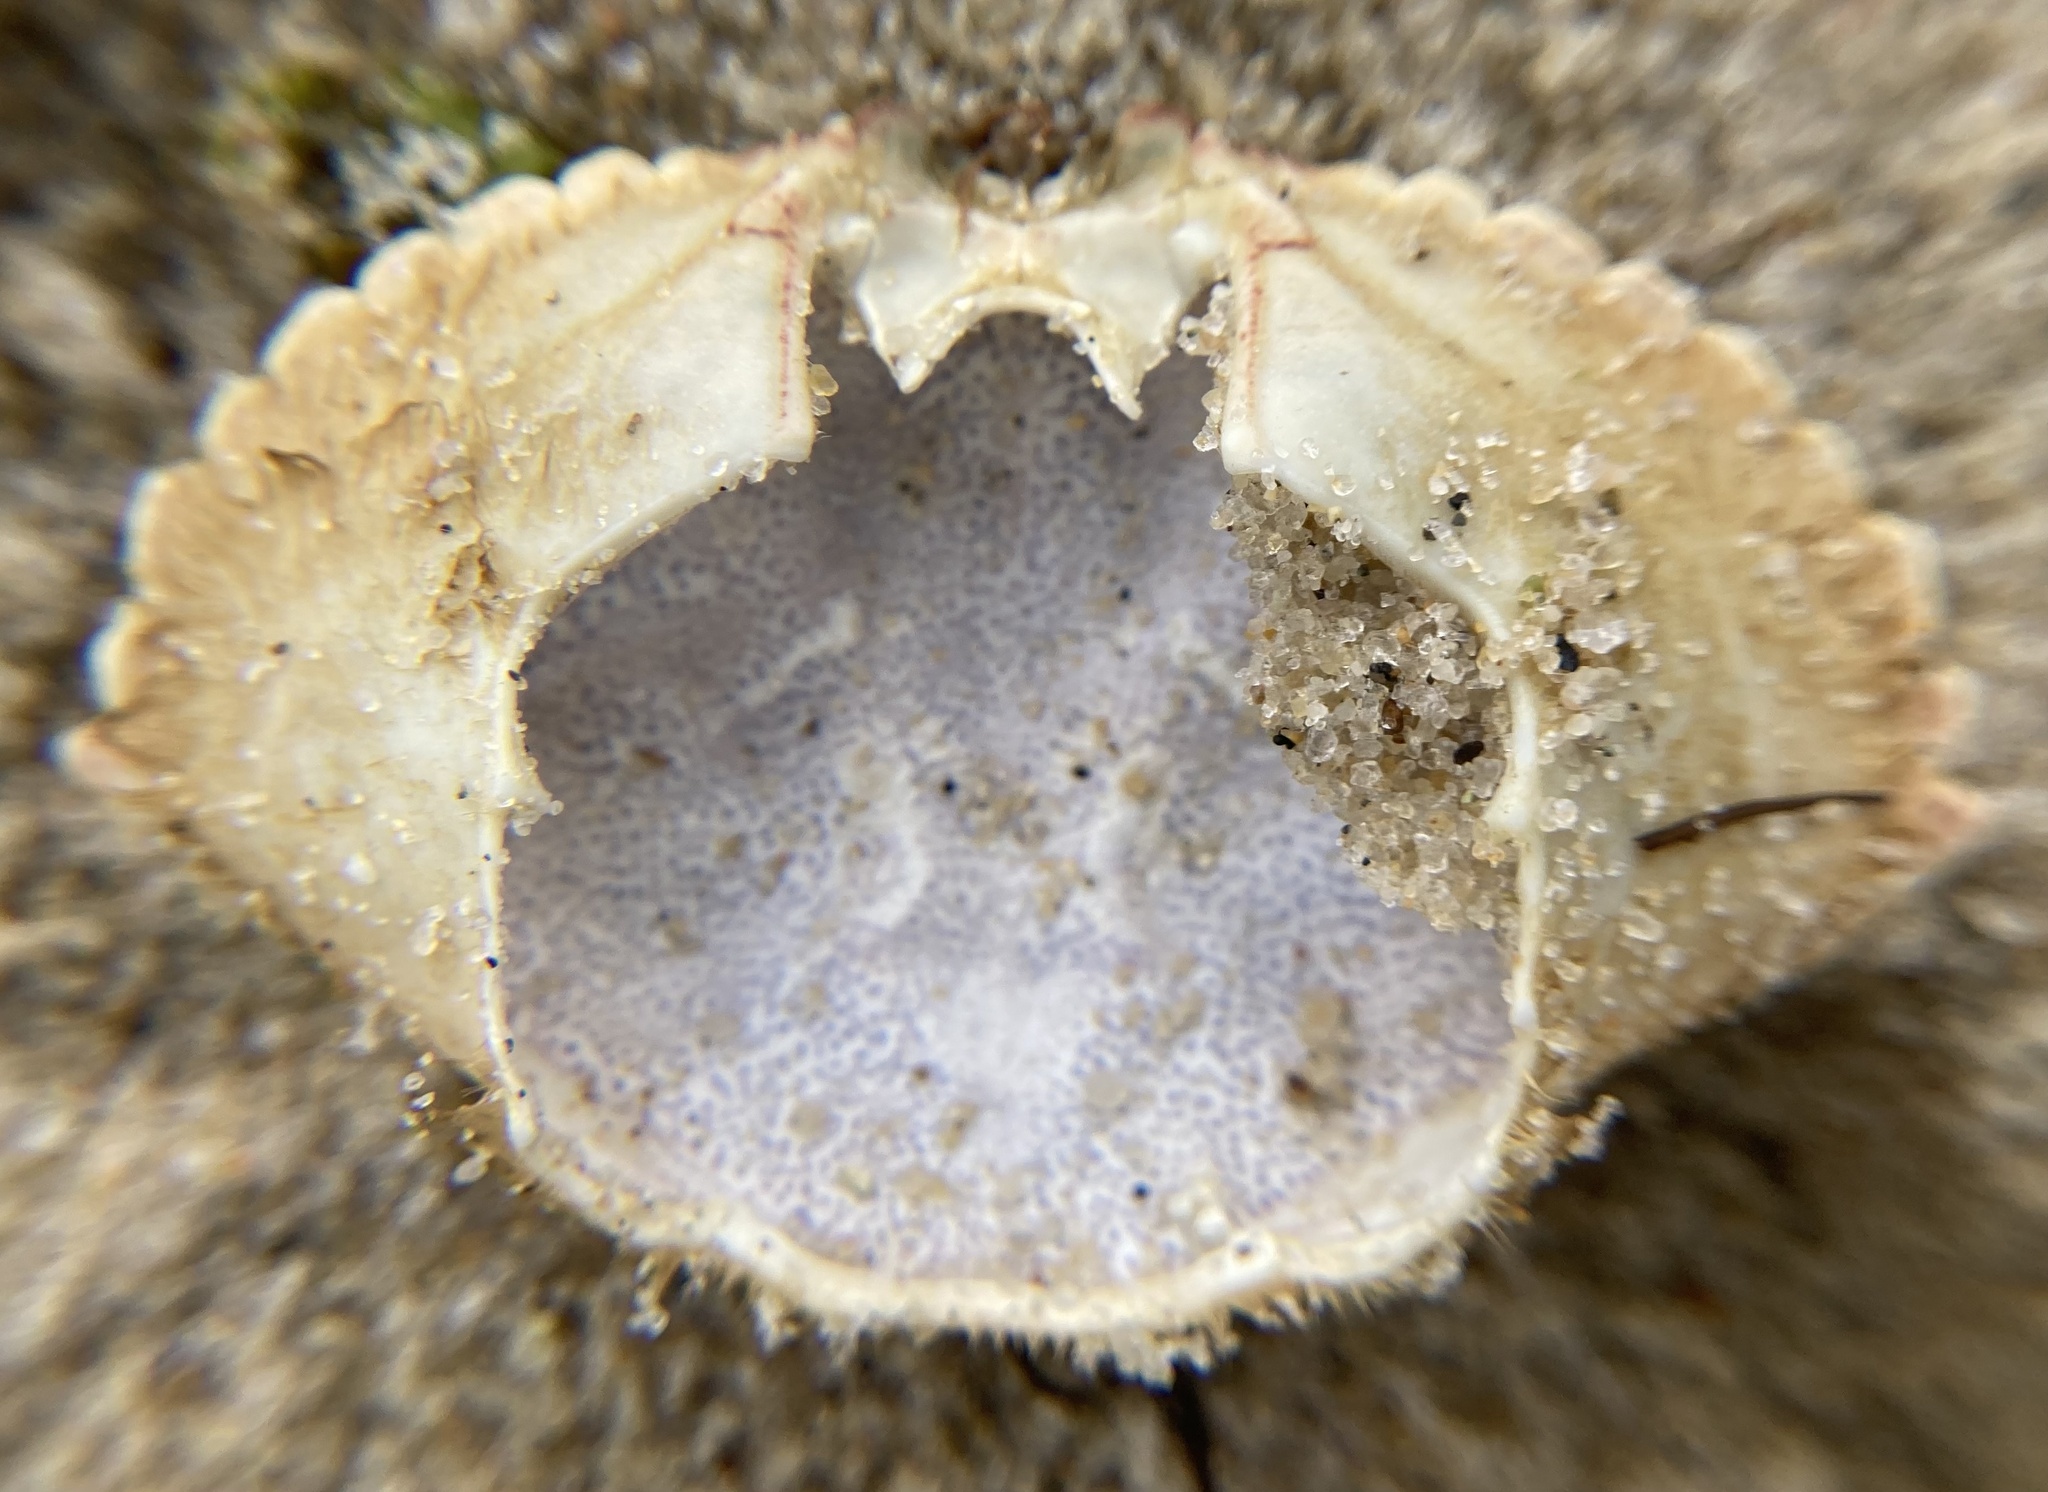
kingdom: Animalia
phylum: Arthropoda
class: Malacostraca
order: Decapoda
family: Cancridae
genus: Cancer
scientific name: Cancer irroratus
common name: Atlantic rock crab
